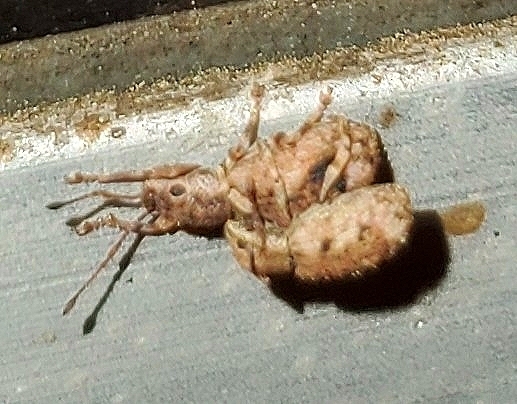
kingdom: Animalia
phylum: Arthropoda
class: Insecta
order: Coleoptera
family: Curculionidae
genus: Pseudoedophrys
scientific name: Pseudoedophrys hilleri
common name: Weevil
